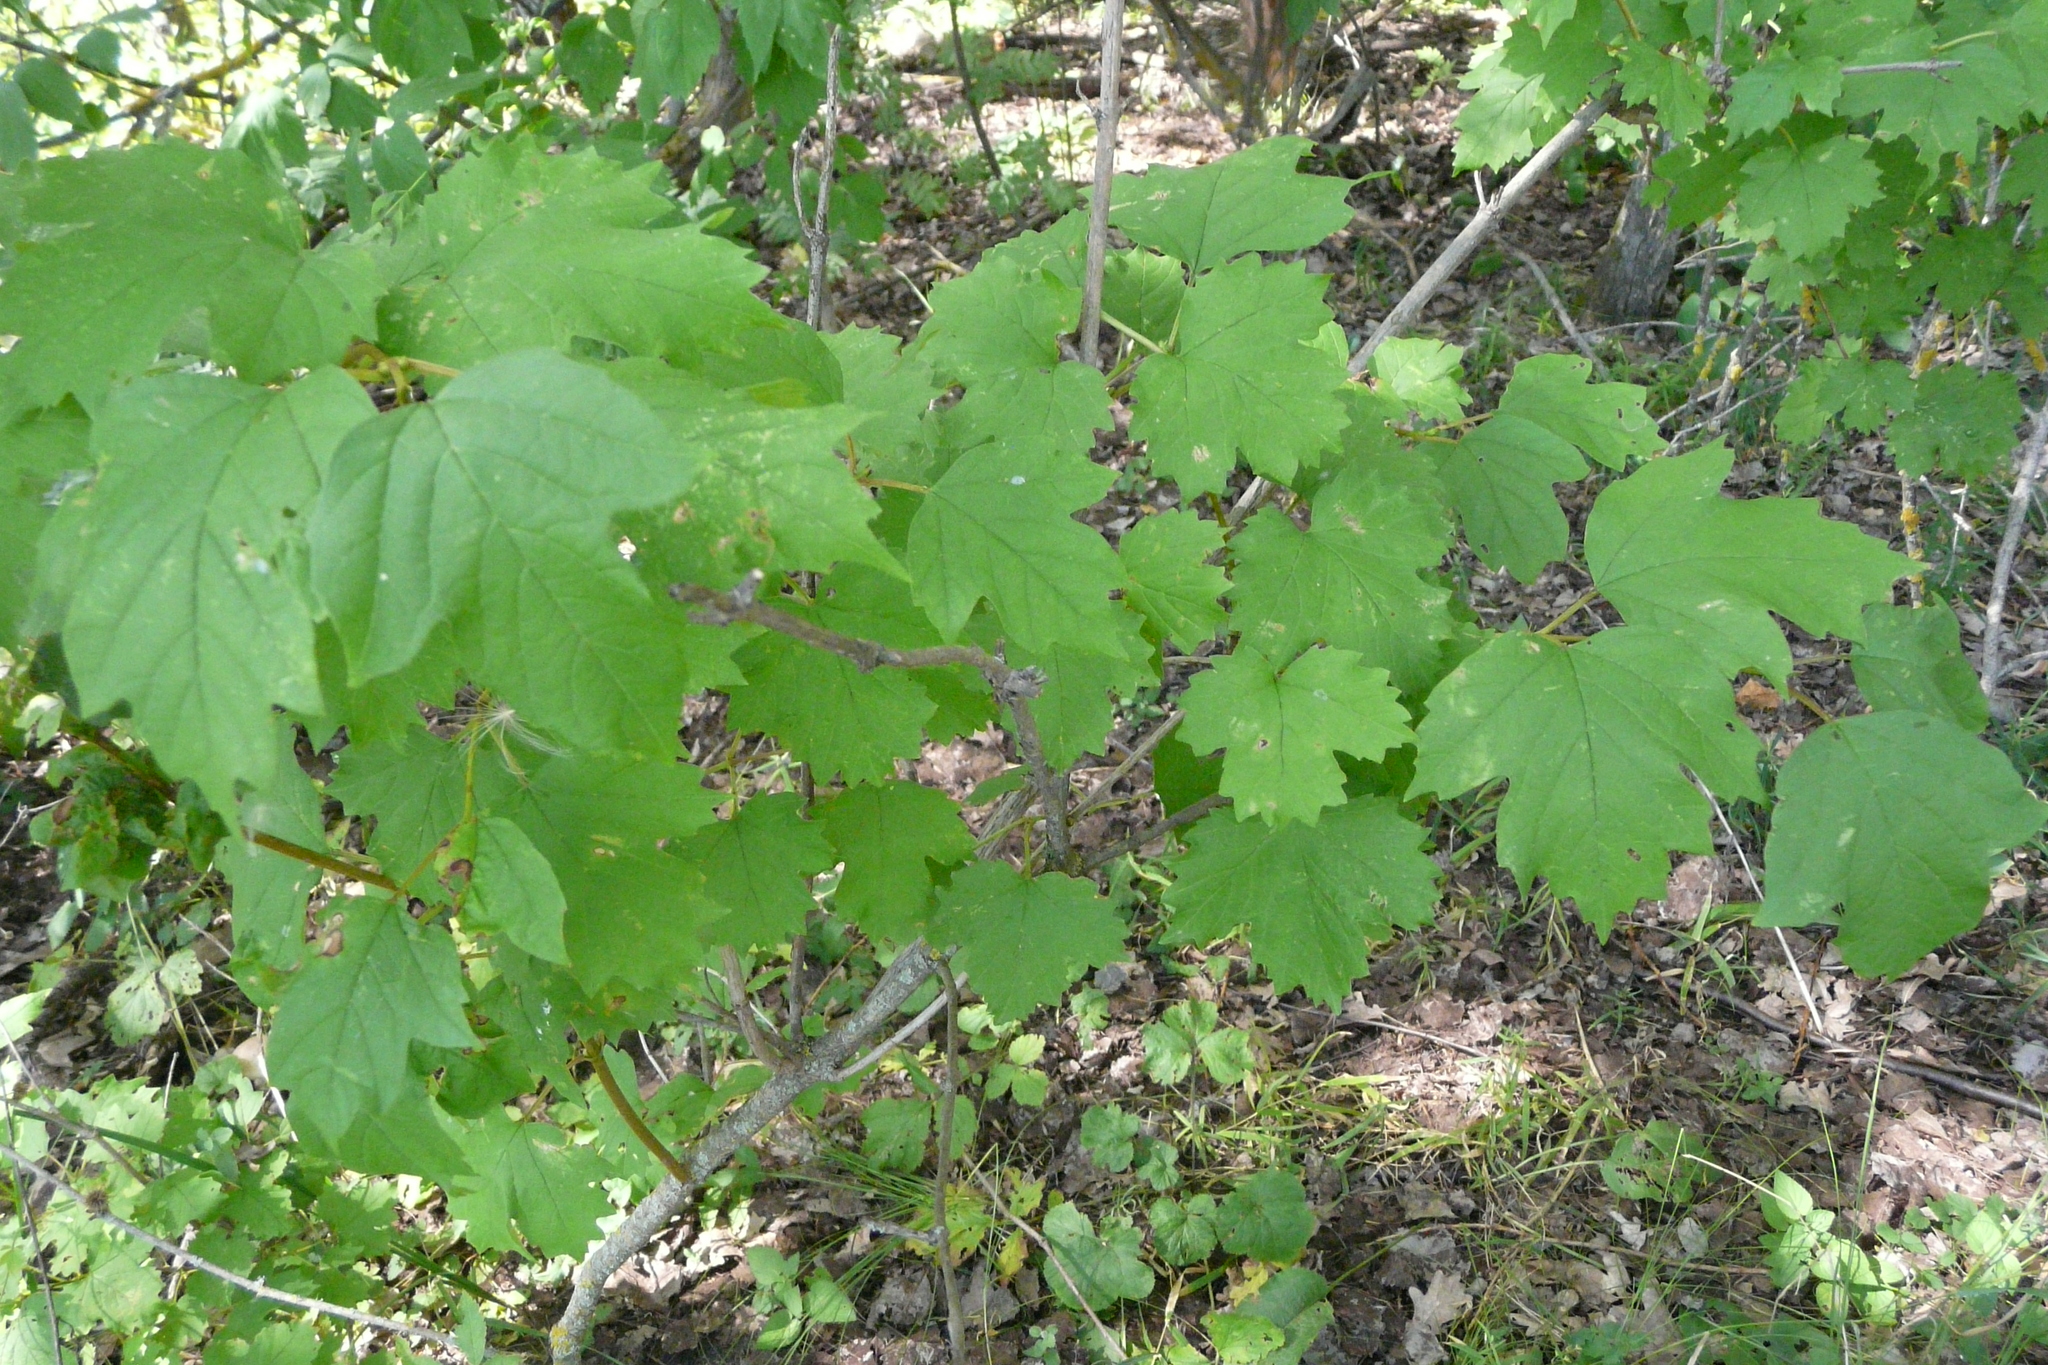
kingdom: Plantae
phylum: Tracheophyta
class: Magnoliopsida
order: Dipsacales
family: Viburnaceae
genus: Viburnum
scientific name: Viburnum opulus
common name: Guelder-rose
